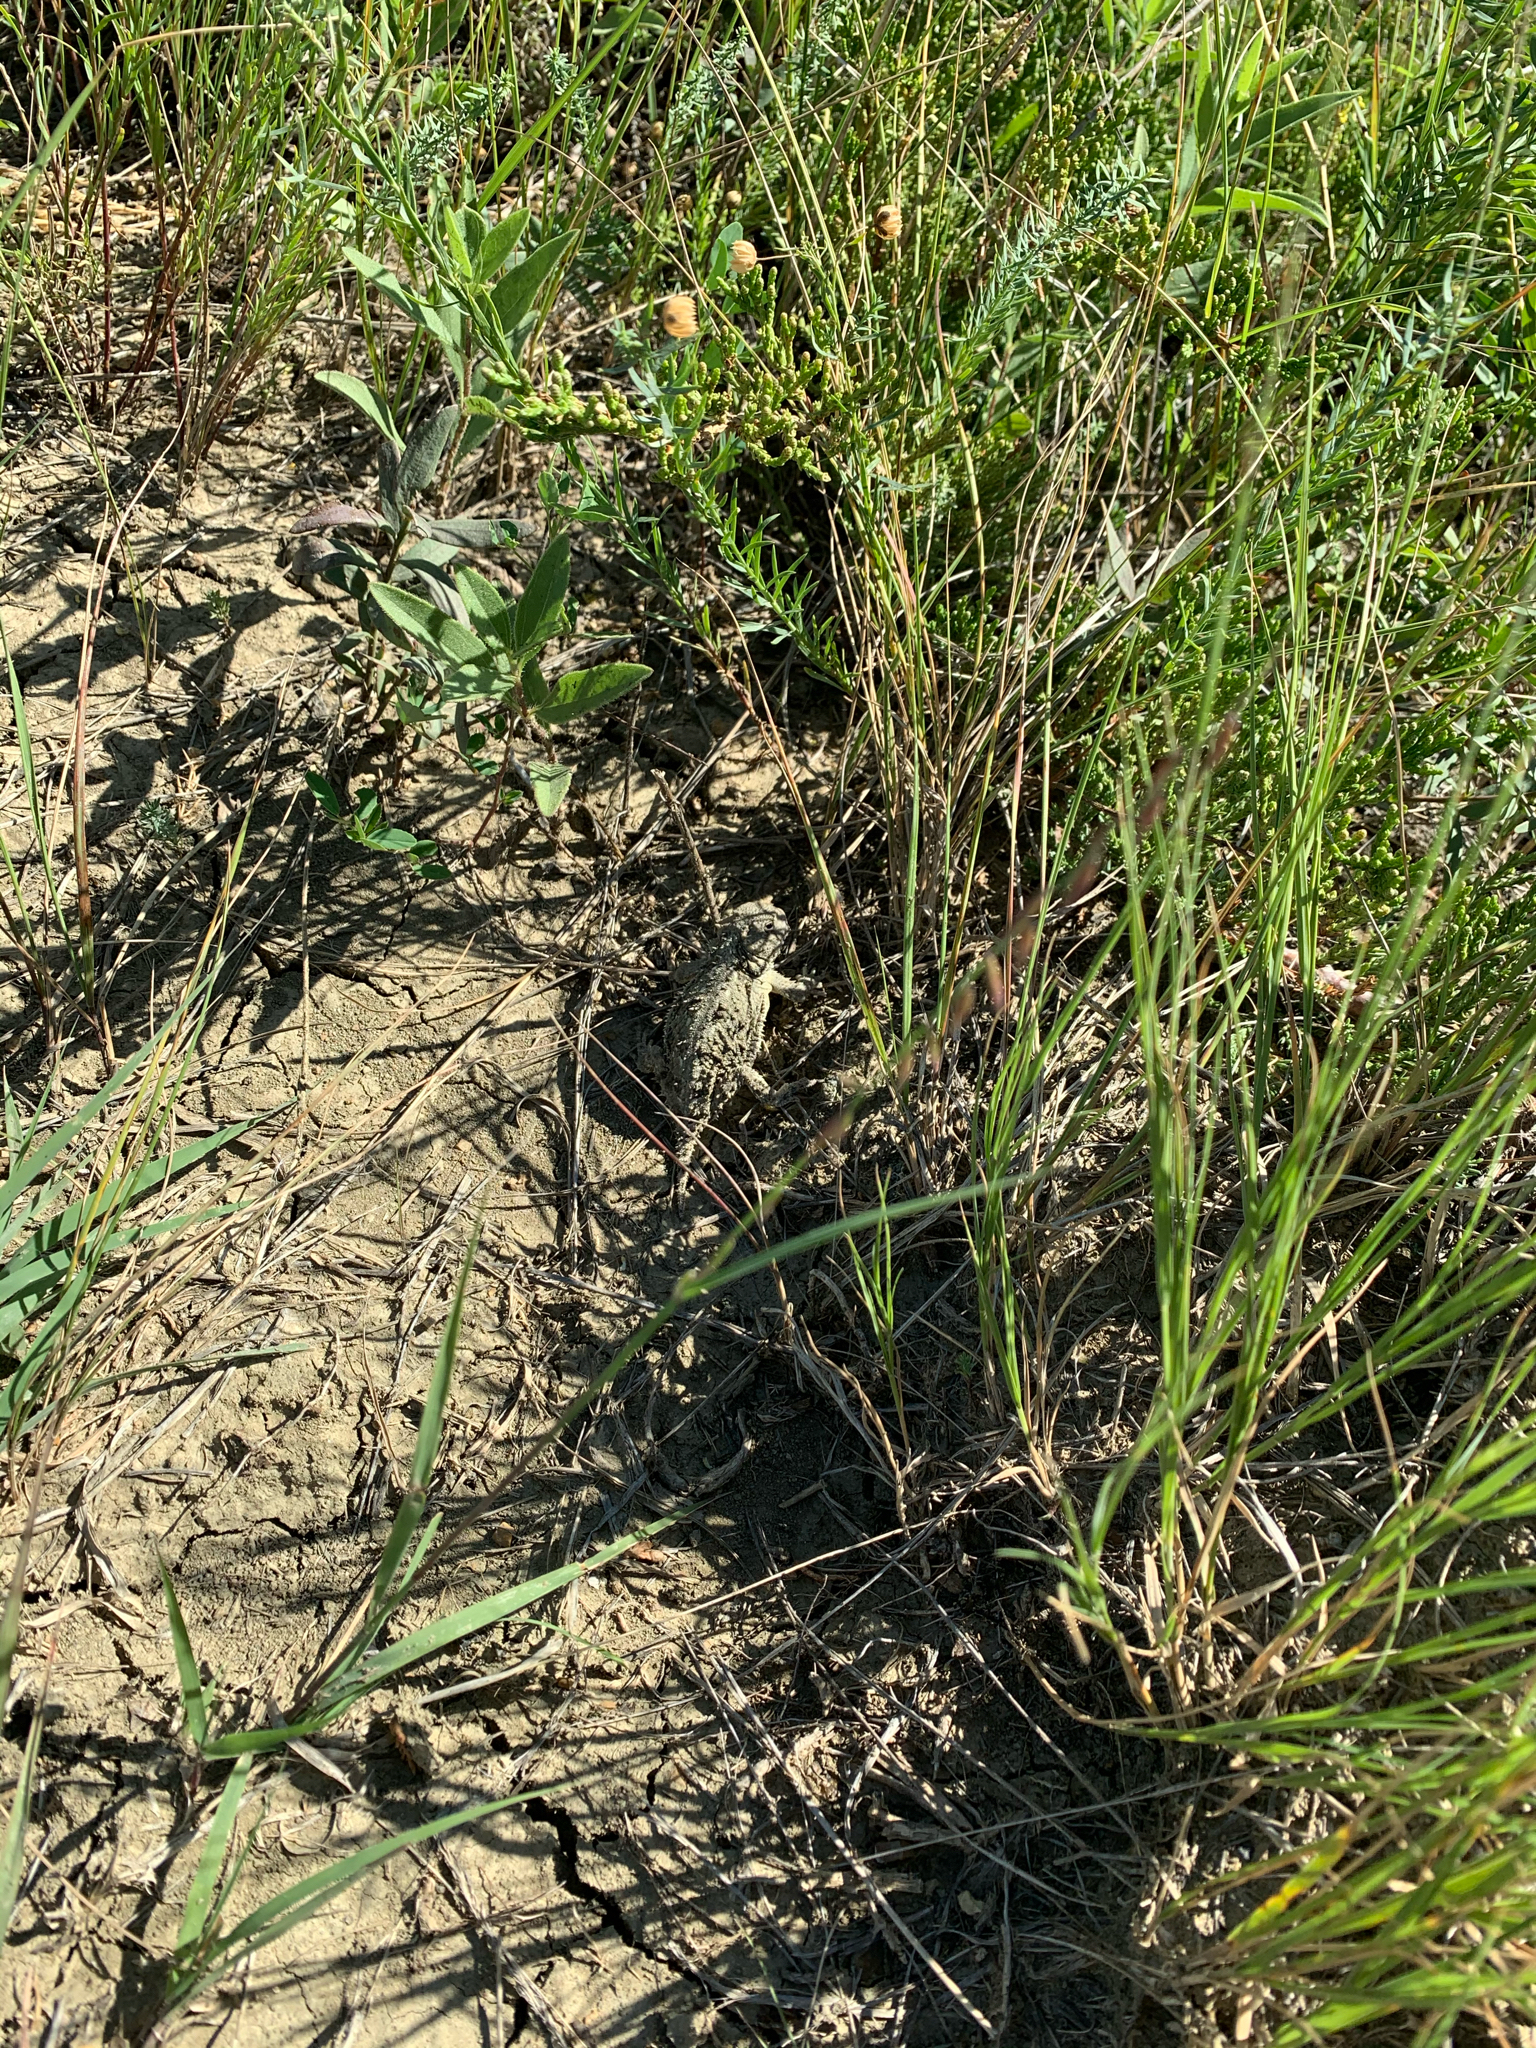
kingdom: Animalia
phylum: Chordata
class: Squamata
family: Phrynosomatidae
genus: Phrynosoma
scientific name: Phrynosoma hernandesi
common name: Greater short-horned lizard
